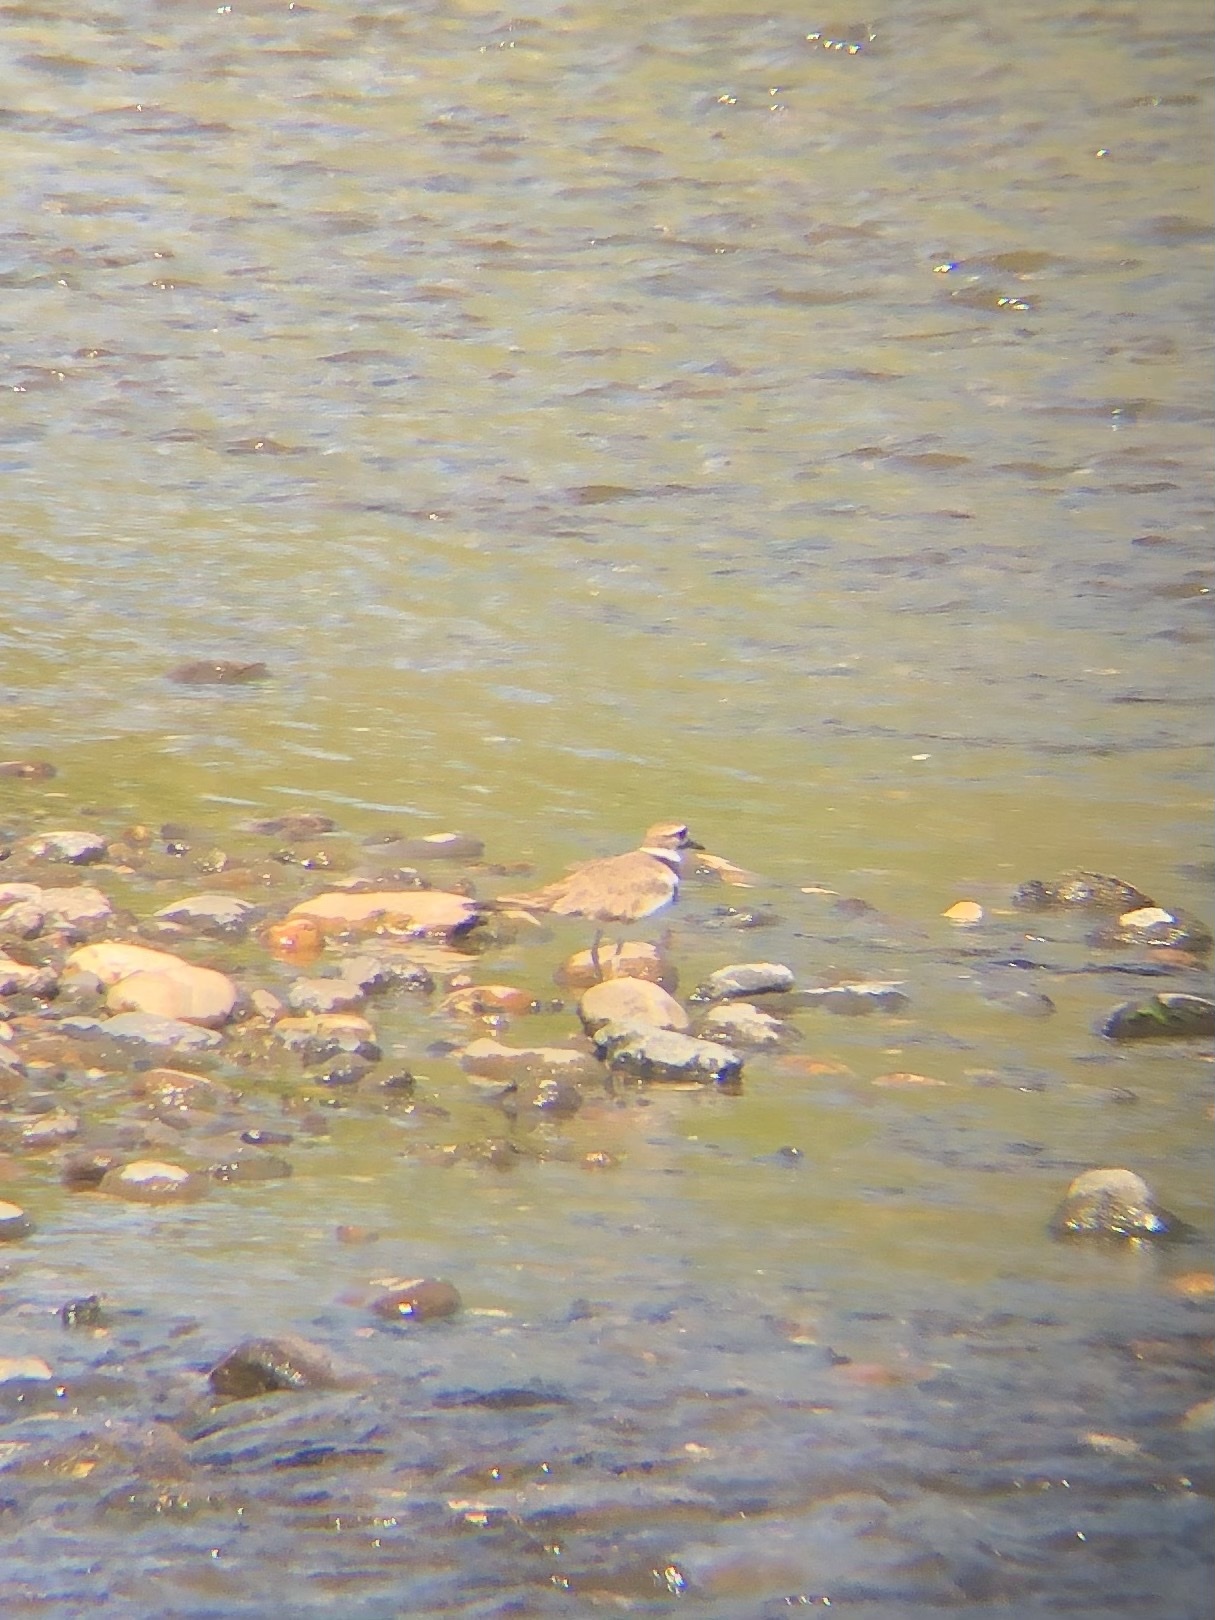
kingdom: Animalia
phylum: Chordata
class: Aves
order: Charadriiformes
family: Charadriidae
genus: Charadrius
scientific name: Charadrius vociferus
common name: Killdeer
